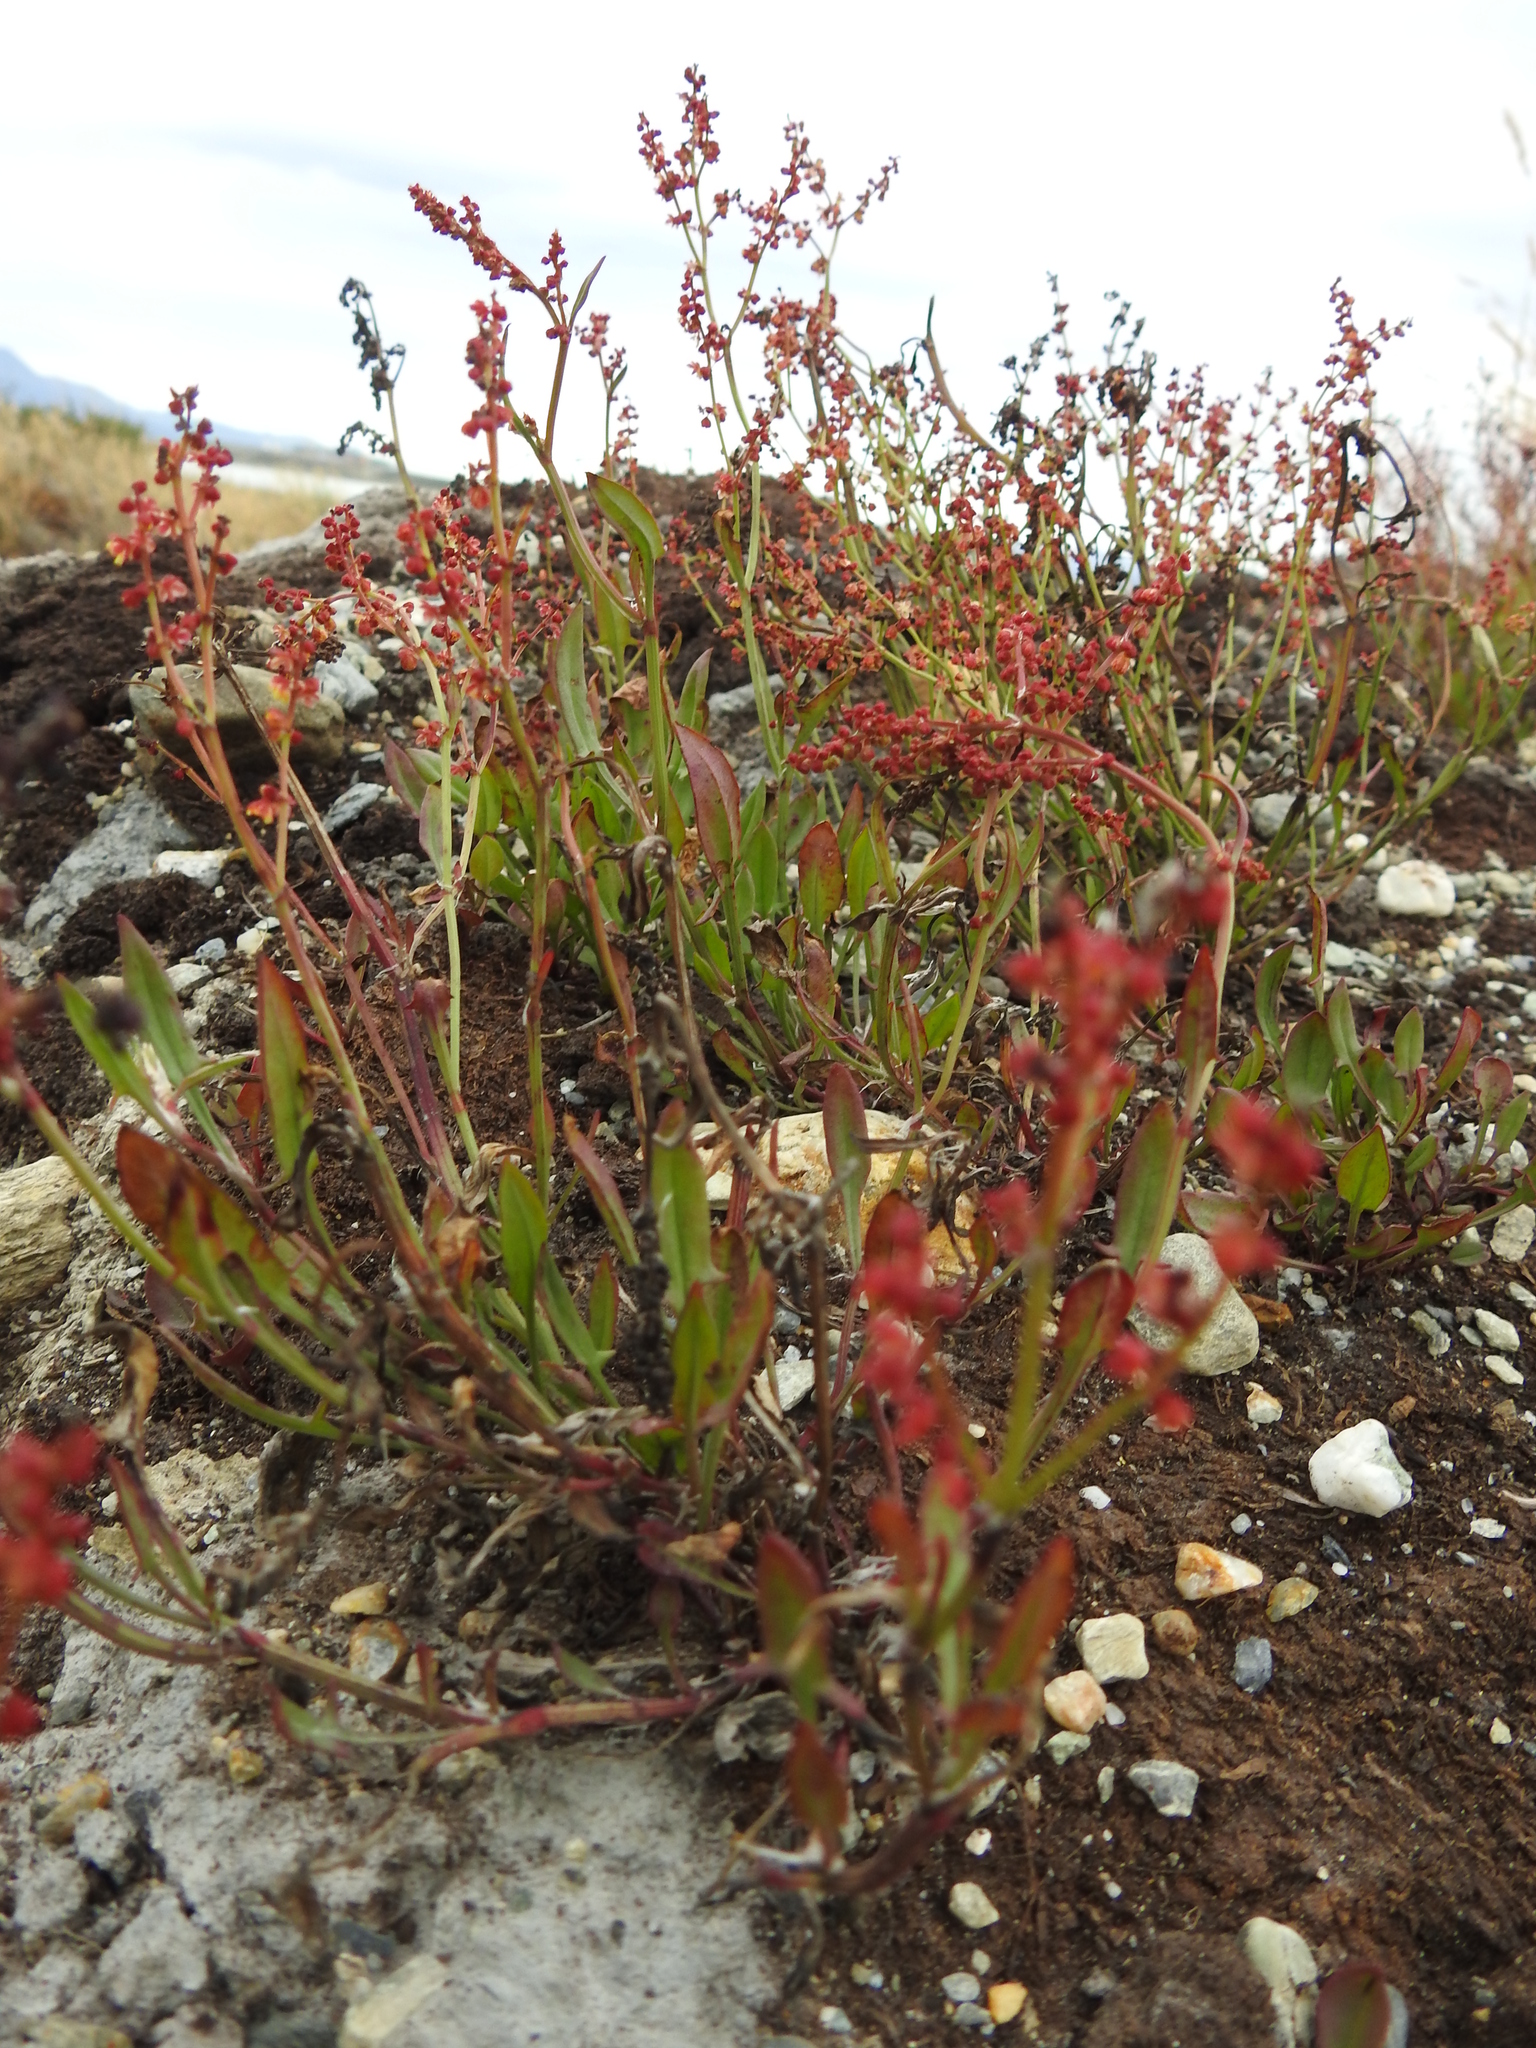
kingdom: Plantae
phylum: Tracheophyta
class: Magnoliopsida
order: Caryophyllales
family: Polygonaceae
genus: Rumex
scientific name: Rumex acetosella
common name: Common sheep sorrel
